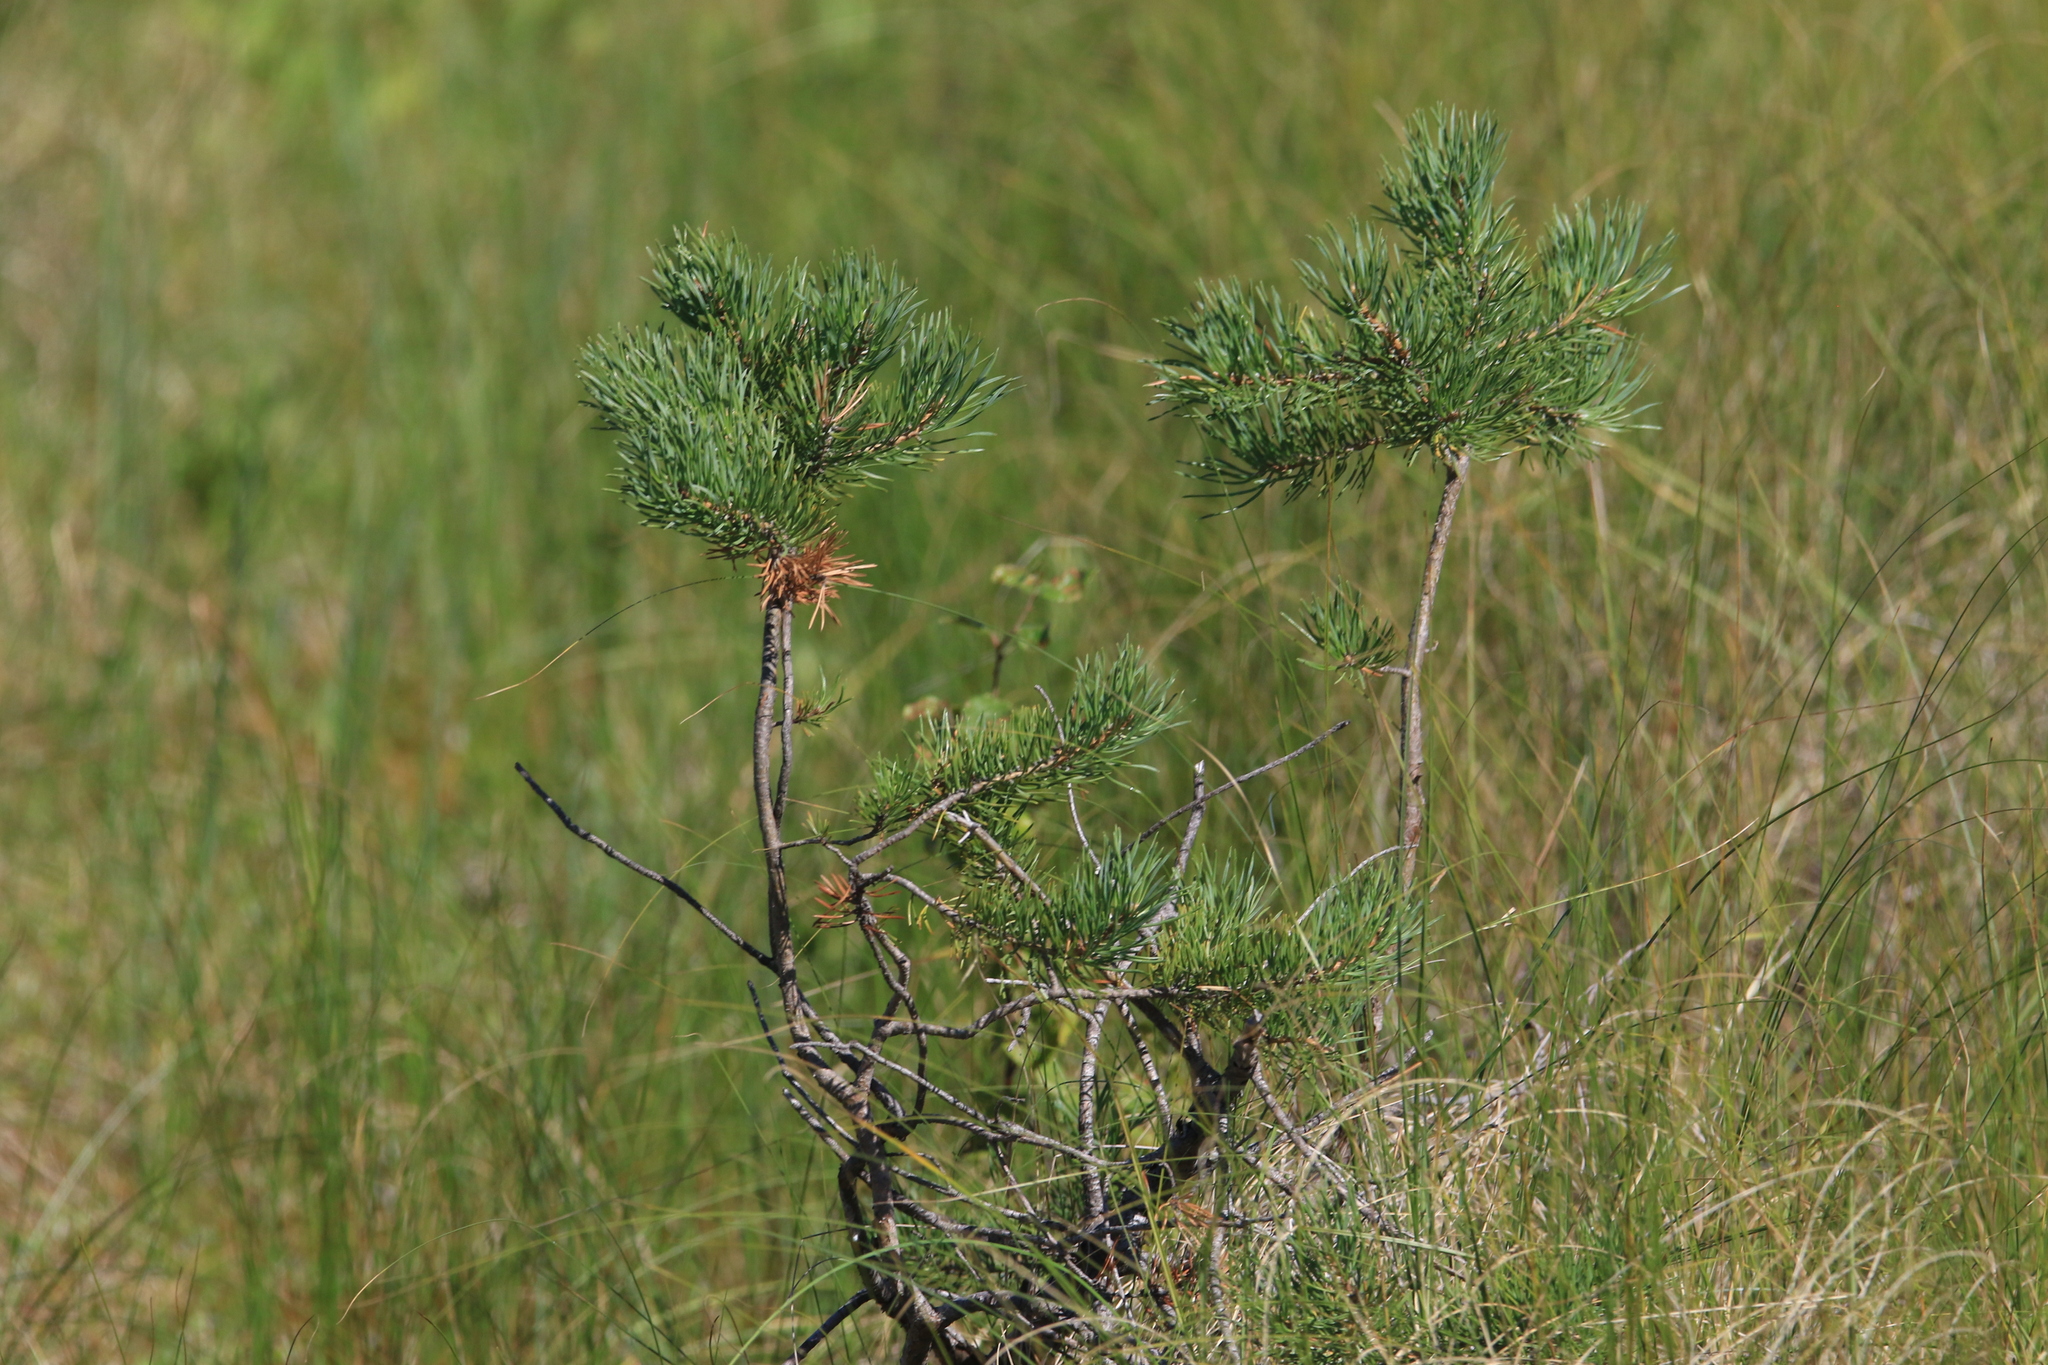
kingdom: Plantae
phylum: Tracheophyta
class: Pinopsida
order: Pinales
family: Pinaceae
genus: Pinus
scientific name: Pinus sylvestris
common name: Scots pine
